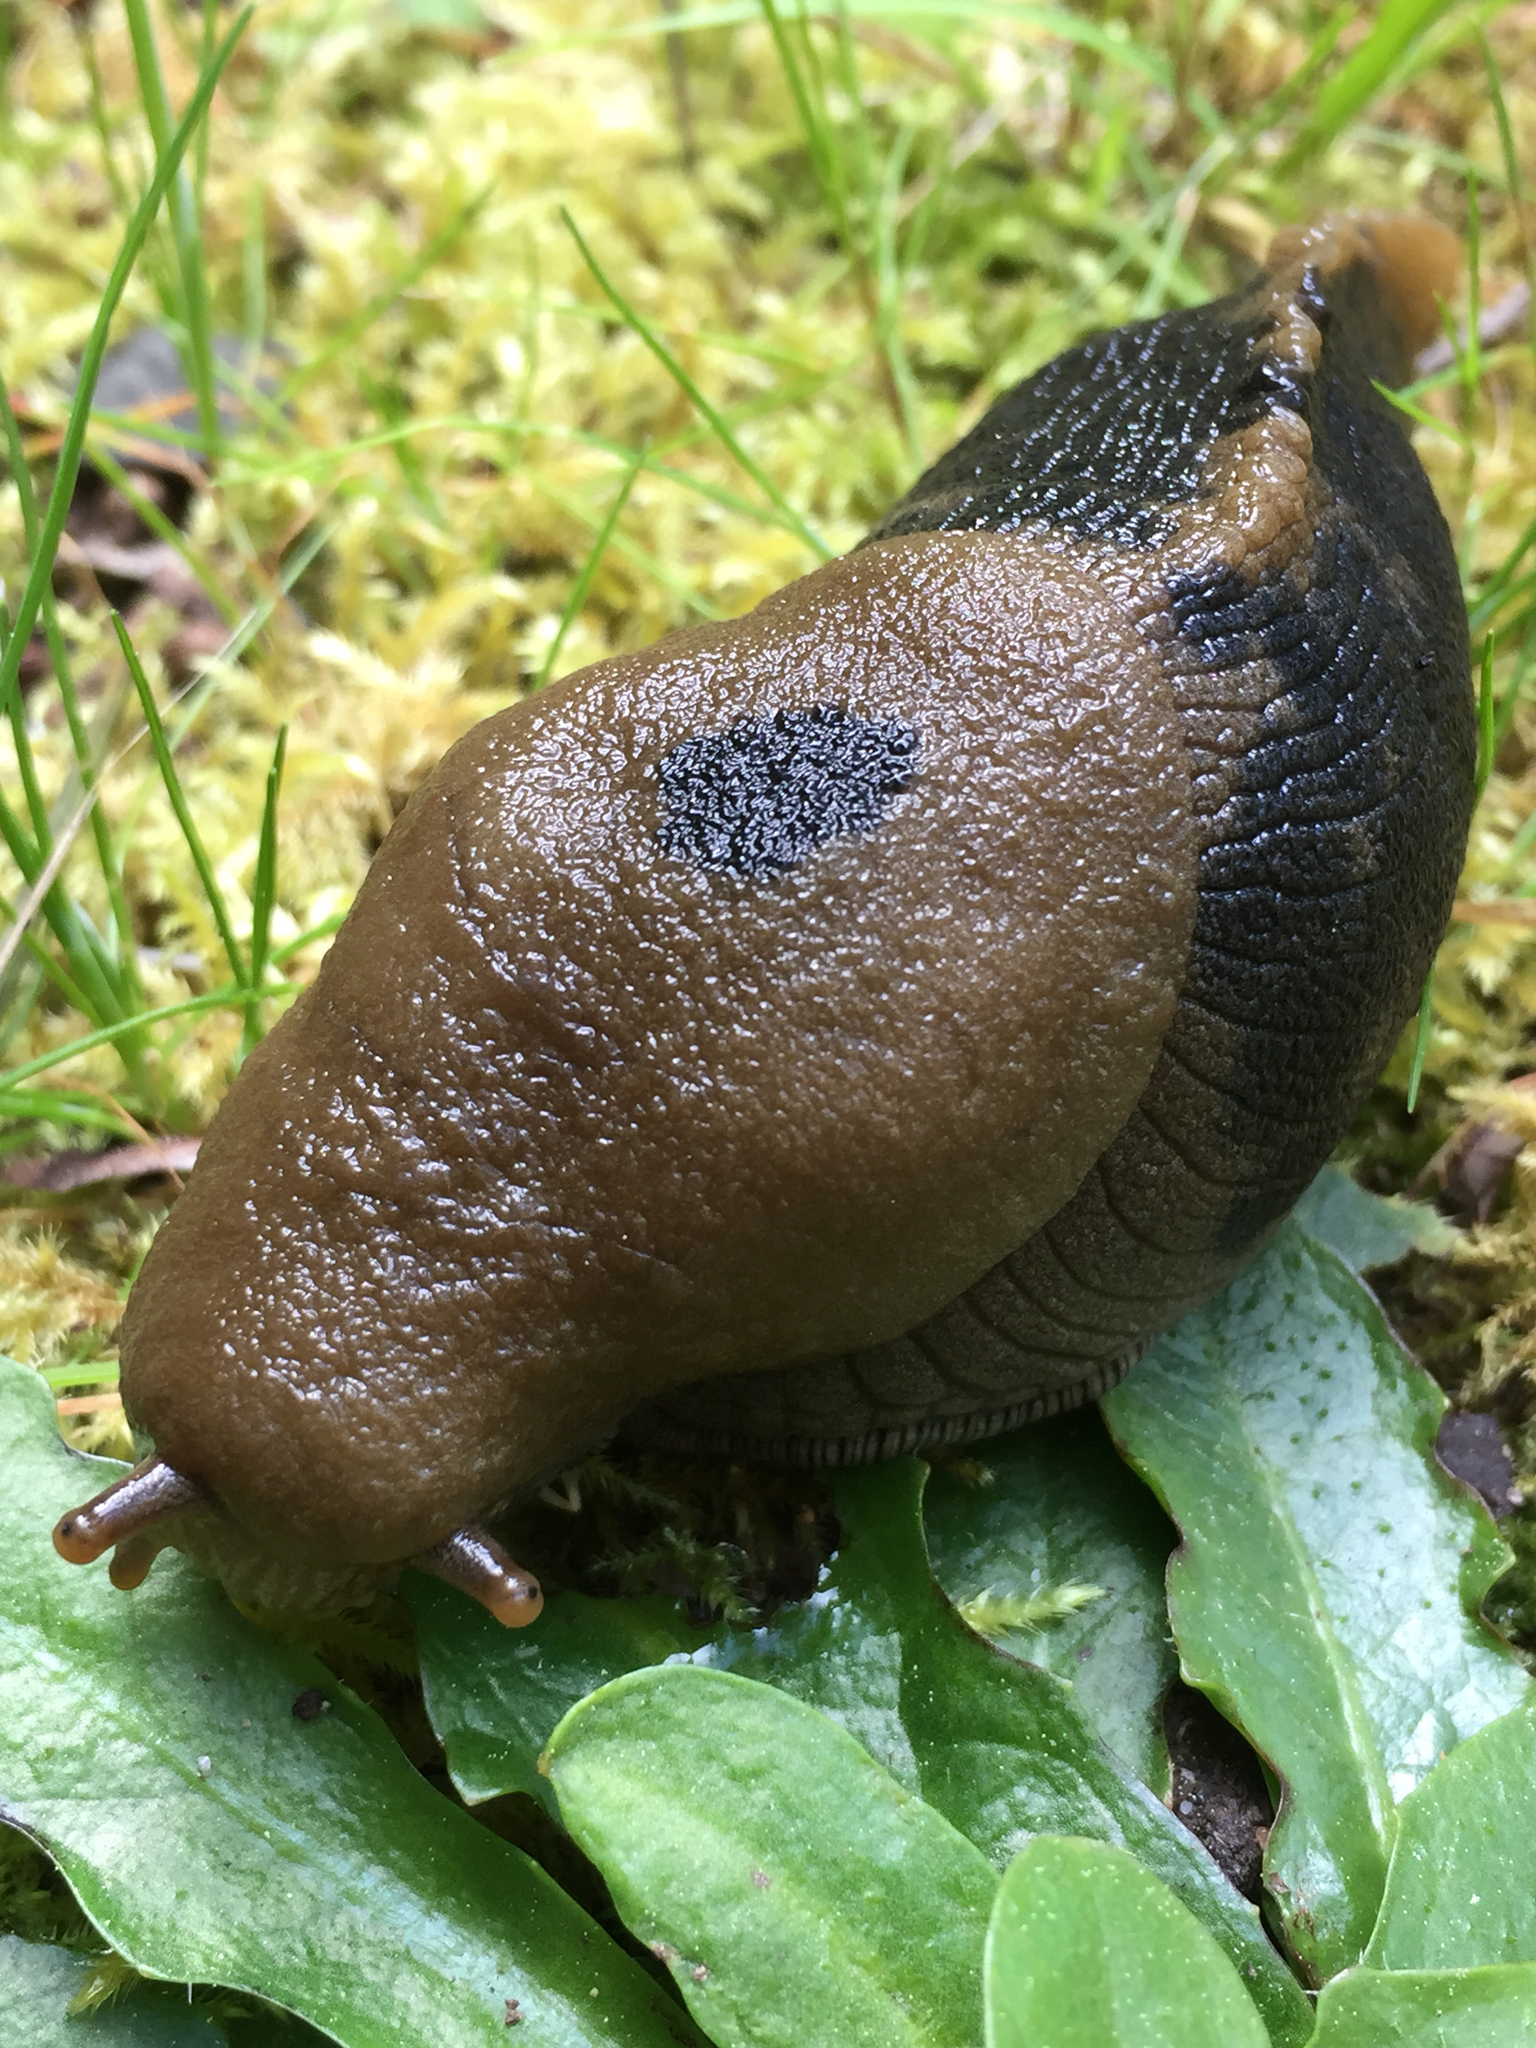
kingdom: Animalia
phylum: Mollusca
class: Gastropoda
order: Stylommatophora
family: Ariolimacidae
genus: Ariolimax
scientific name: Ariolimax buttoni
